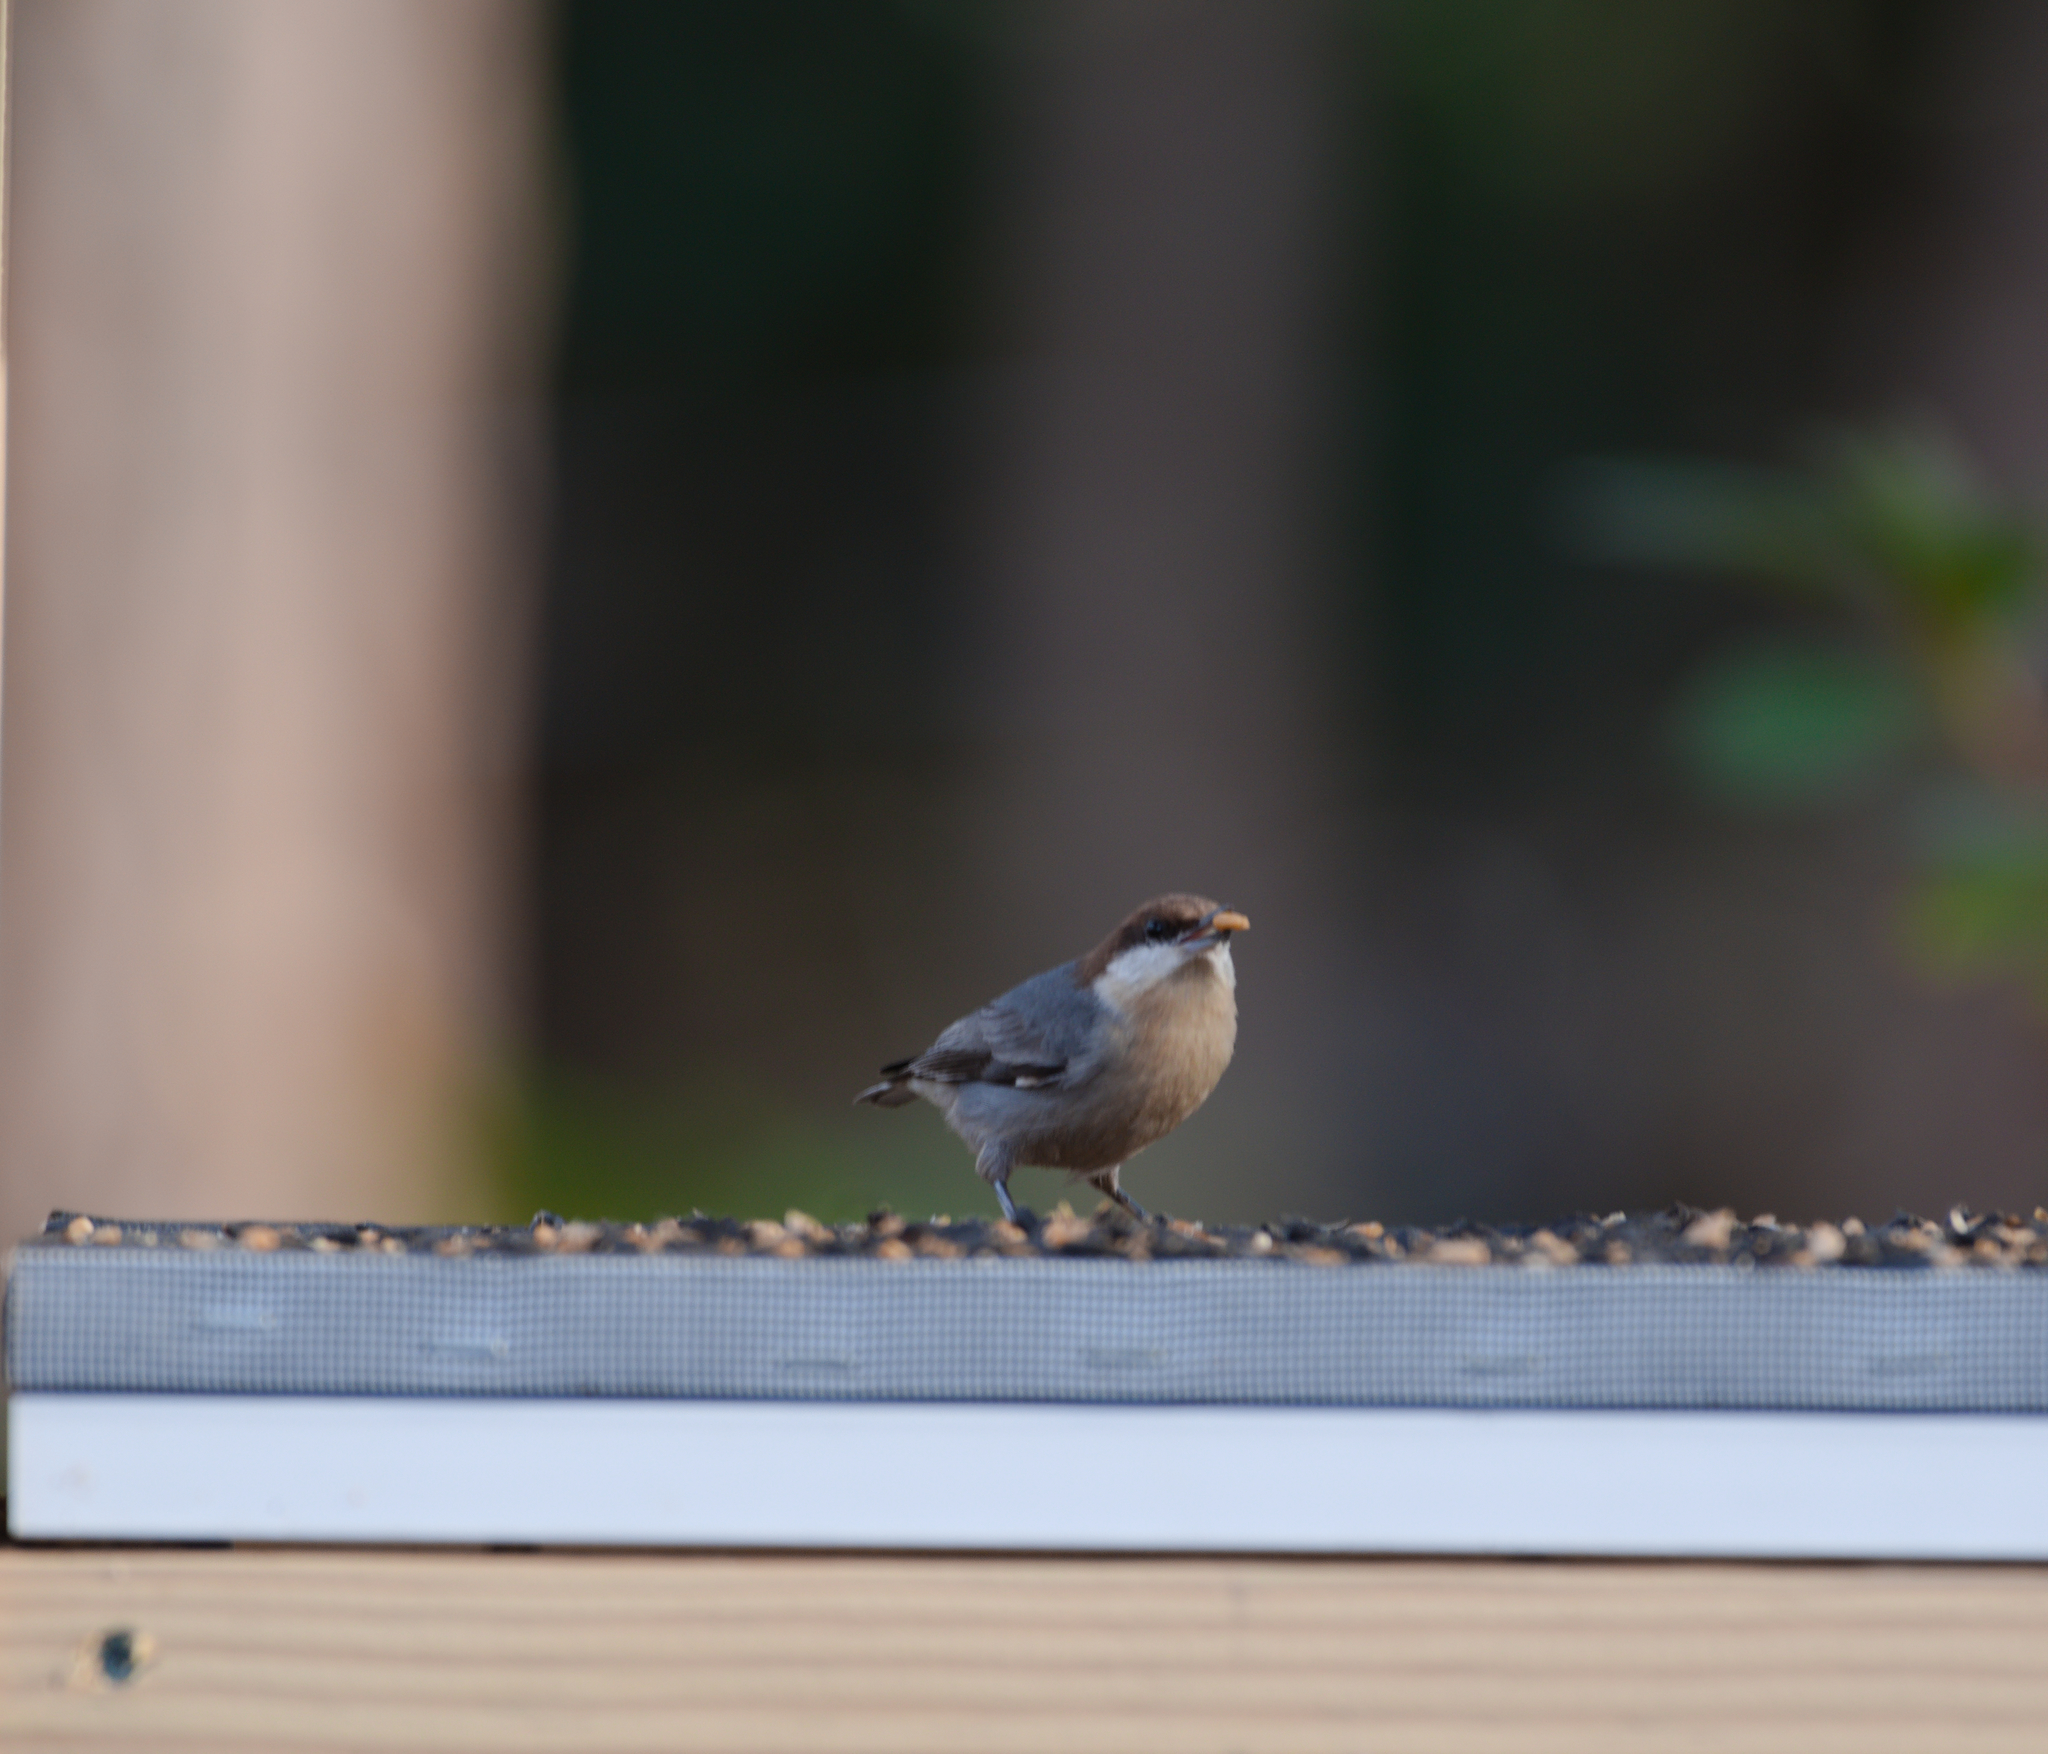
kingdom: Animalia
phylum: Chordata
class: Aves
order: Passeriformes
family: Sittidae
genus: Sitta
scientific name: Sitta pusilla
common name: Brown-headed nuthatch
